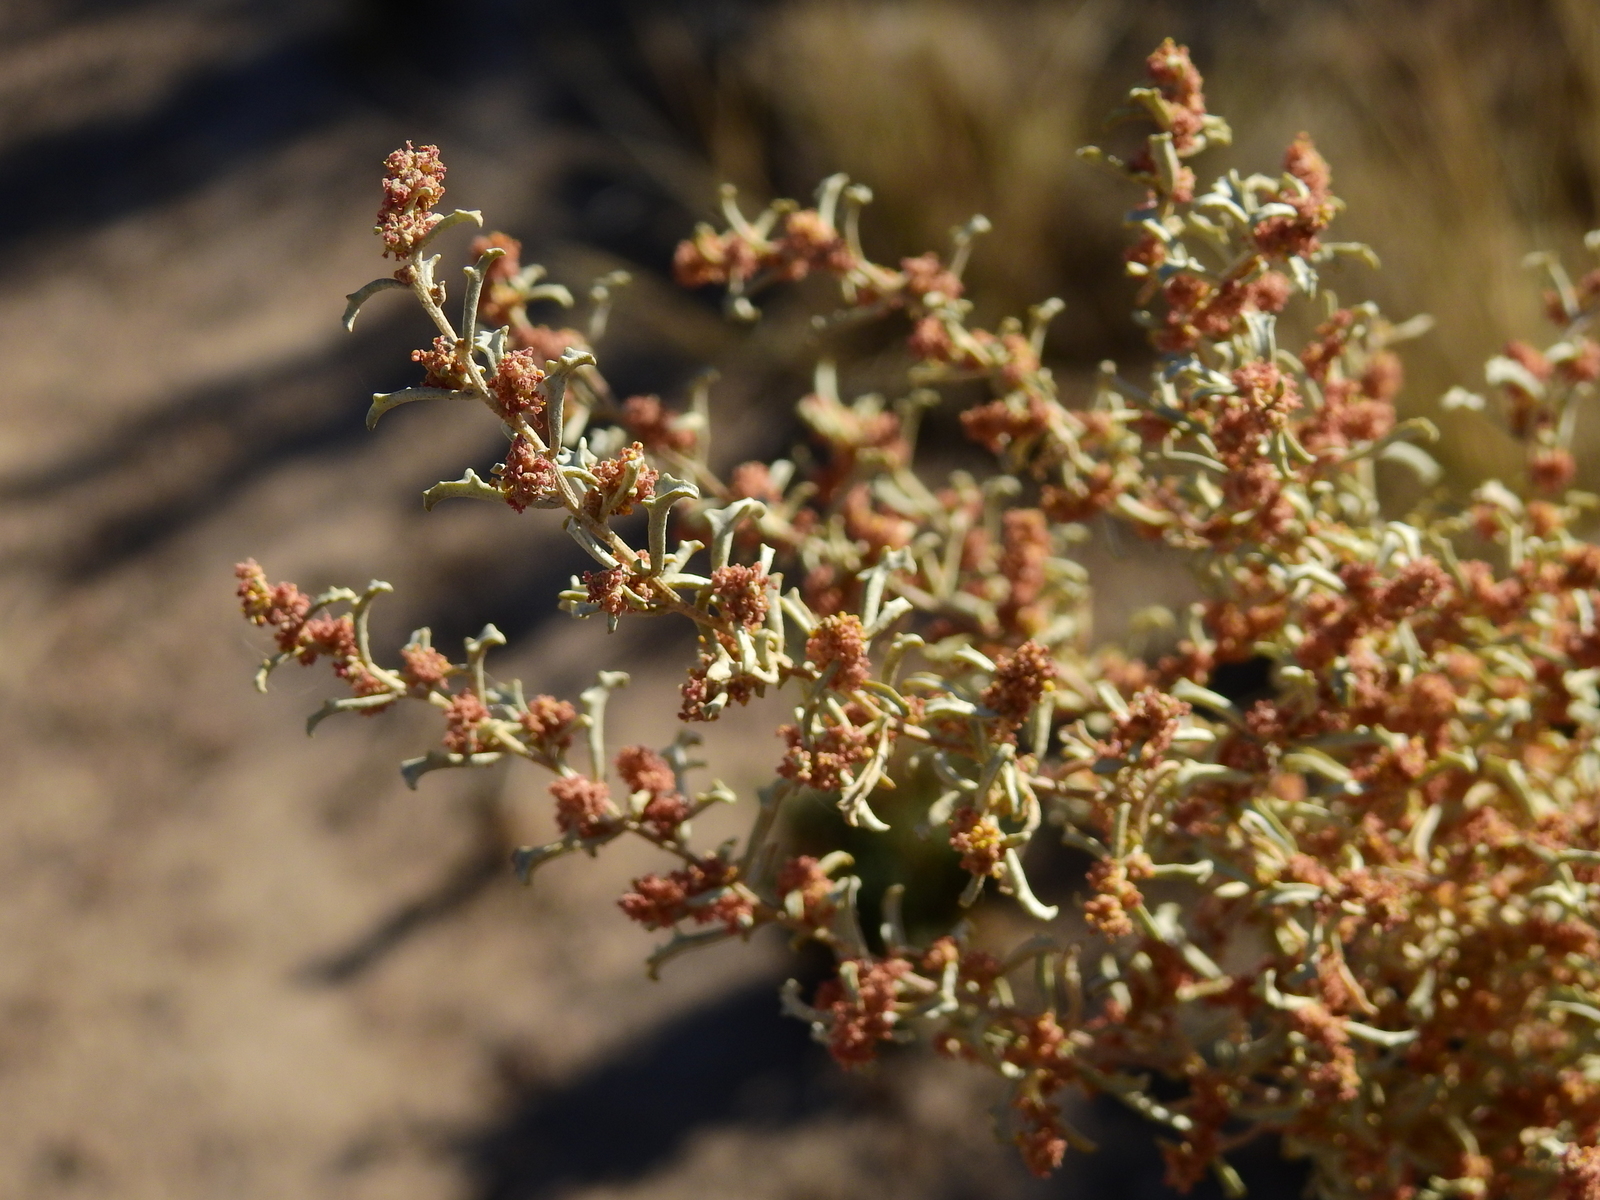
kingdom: Plantae
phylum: Tracheophyta
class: Magnoliopsida
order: Caryophyllales
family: Amaranthaceae
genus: Atriplex
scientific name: Atriplex lampa
